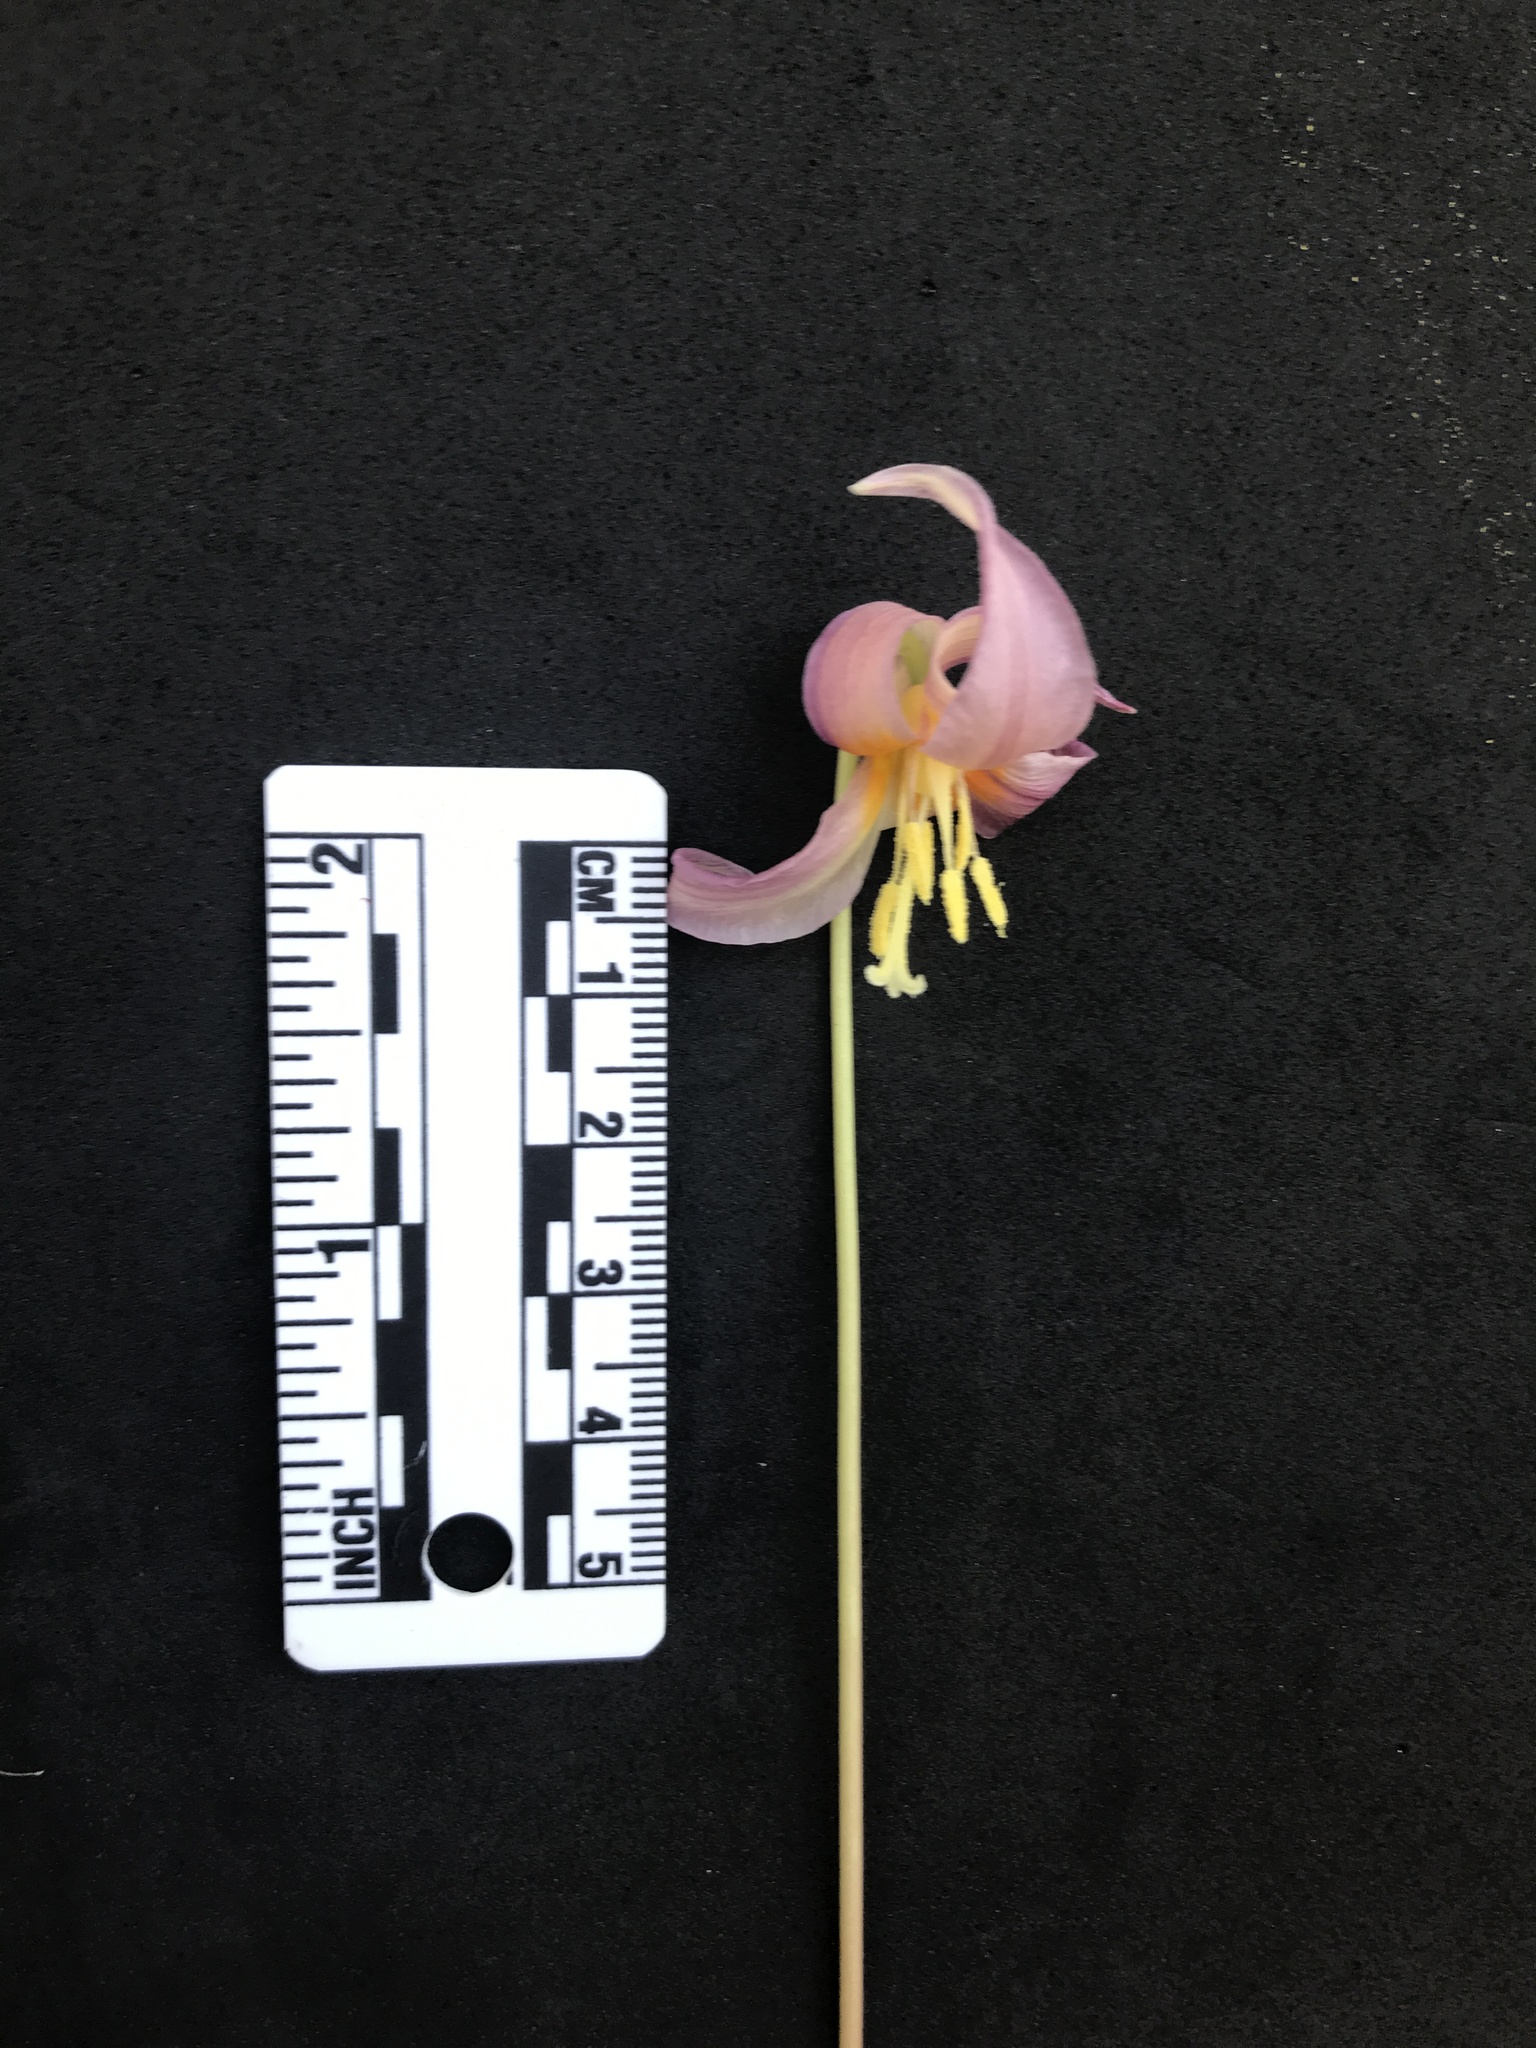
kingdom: Plantae
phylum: Tracheophyta
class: Liliopsida
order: Liliales
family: Liliaceae
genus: Erythronium
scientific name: Erythronium oregonum
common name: Giant adder's-tongue
